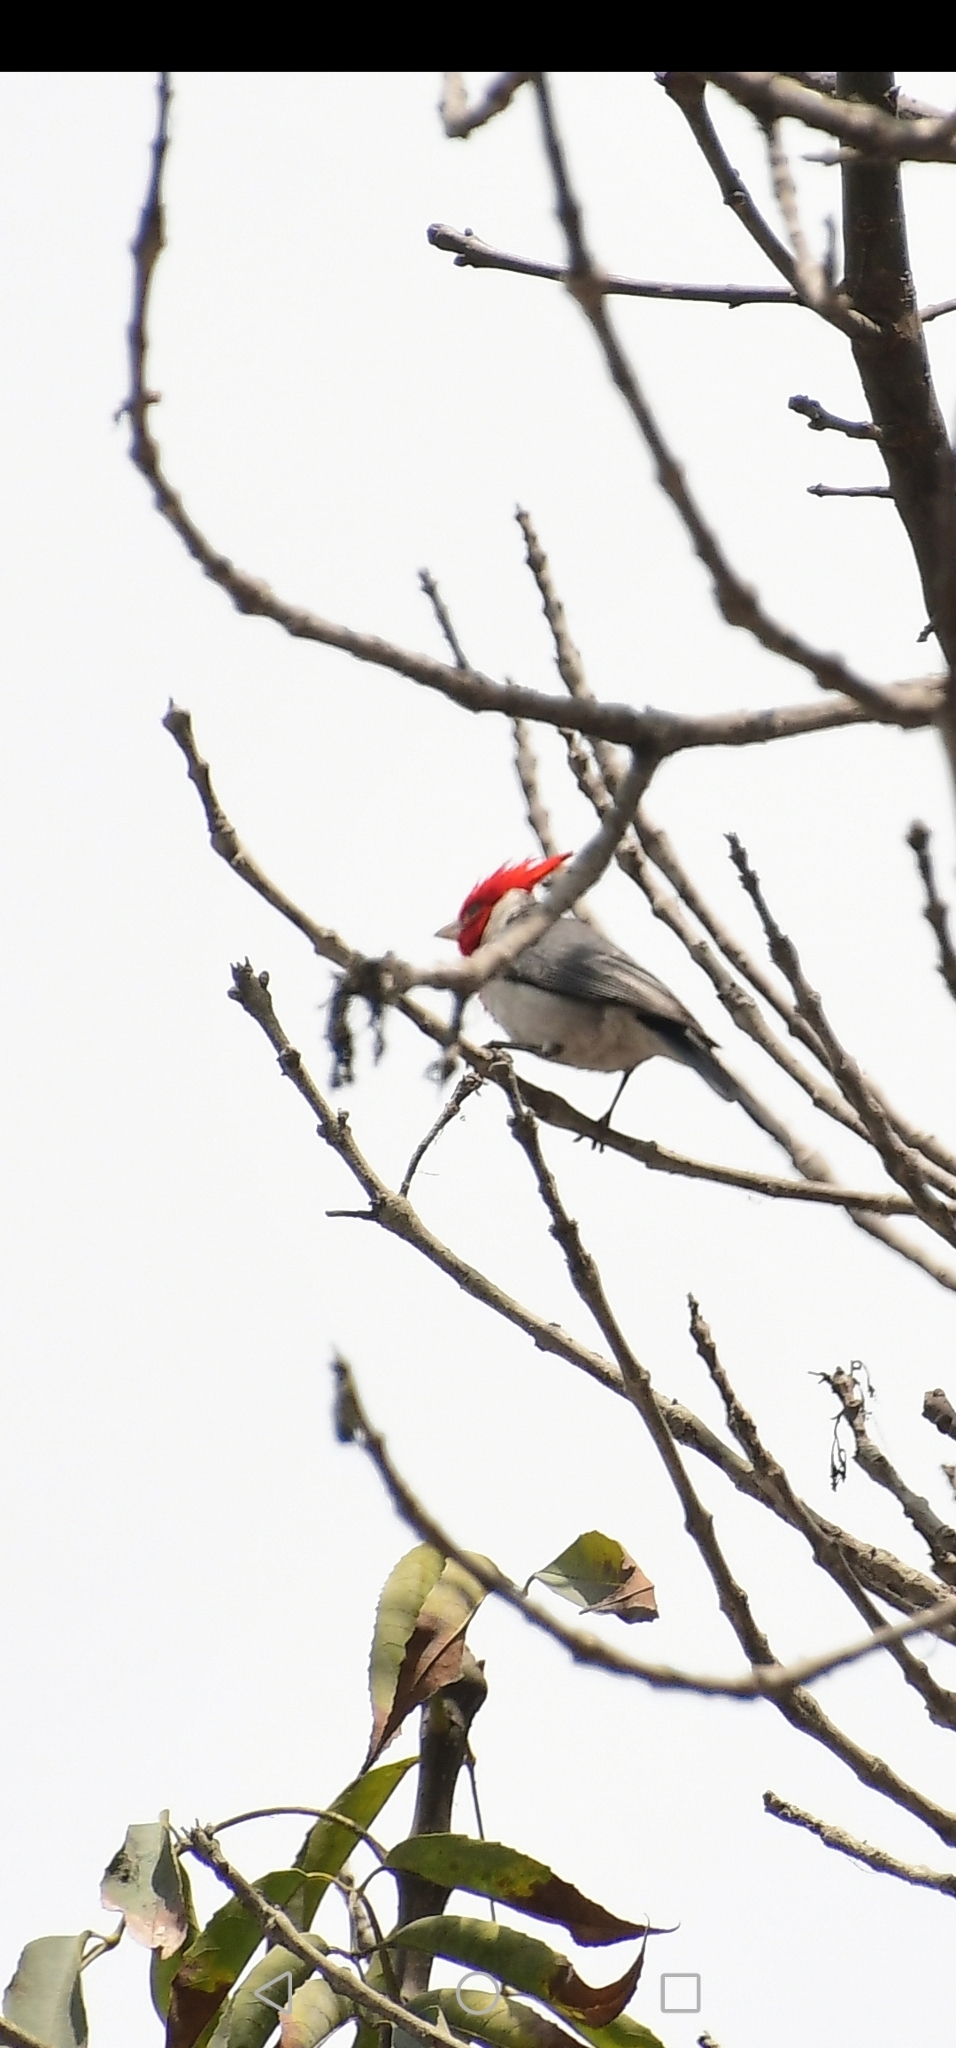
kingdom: Animalia
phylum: Chordata
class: Aves
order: Passeriformes
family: Thraupidae
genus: Paroaria
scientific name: Paroaria coronata
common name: Red-crested cardinal
